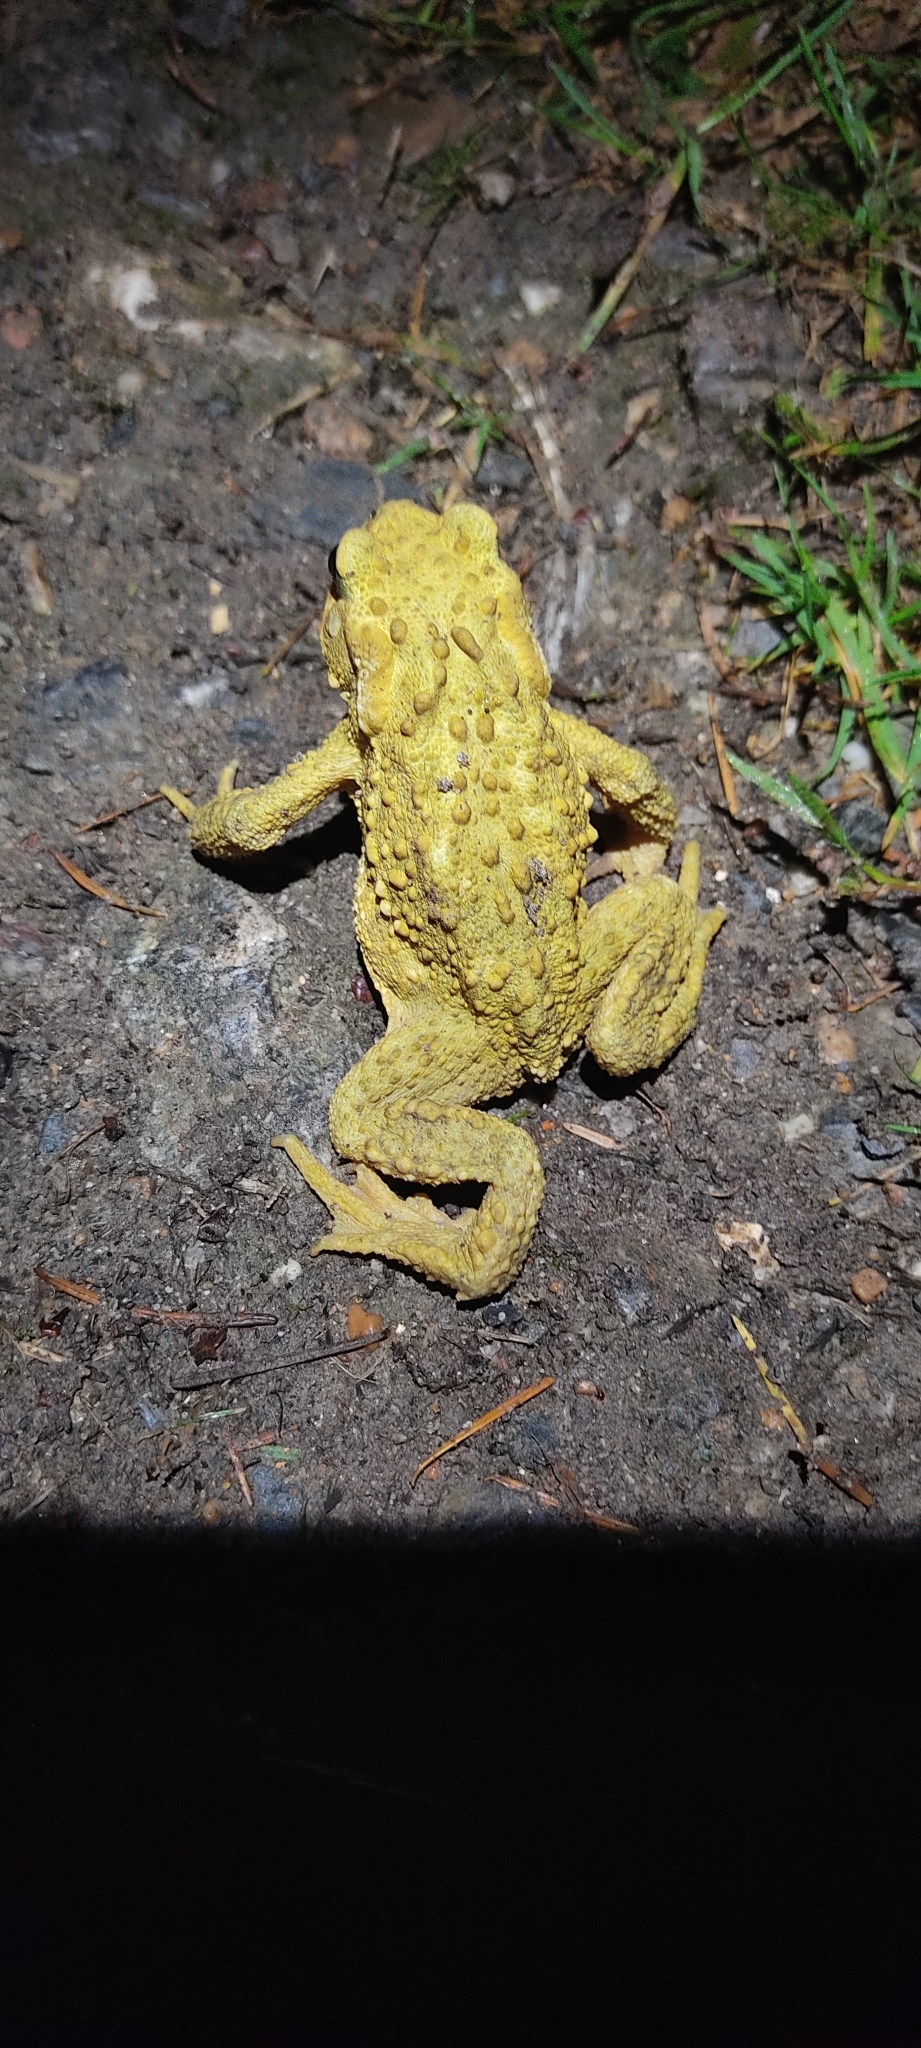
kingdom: Animalia
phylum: Chordata
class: Amphibia
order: Anura
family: Bufonidae
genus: Bufo
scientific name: Bufo spinosus
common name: Western common toad
